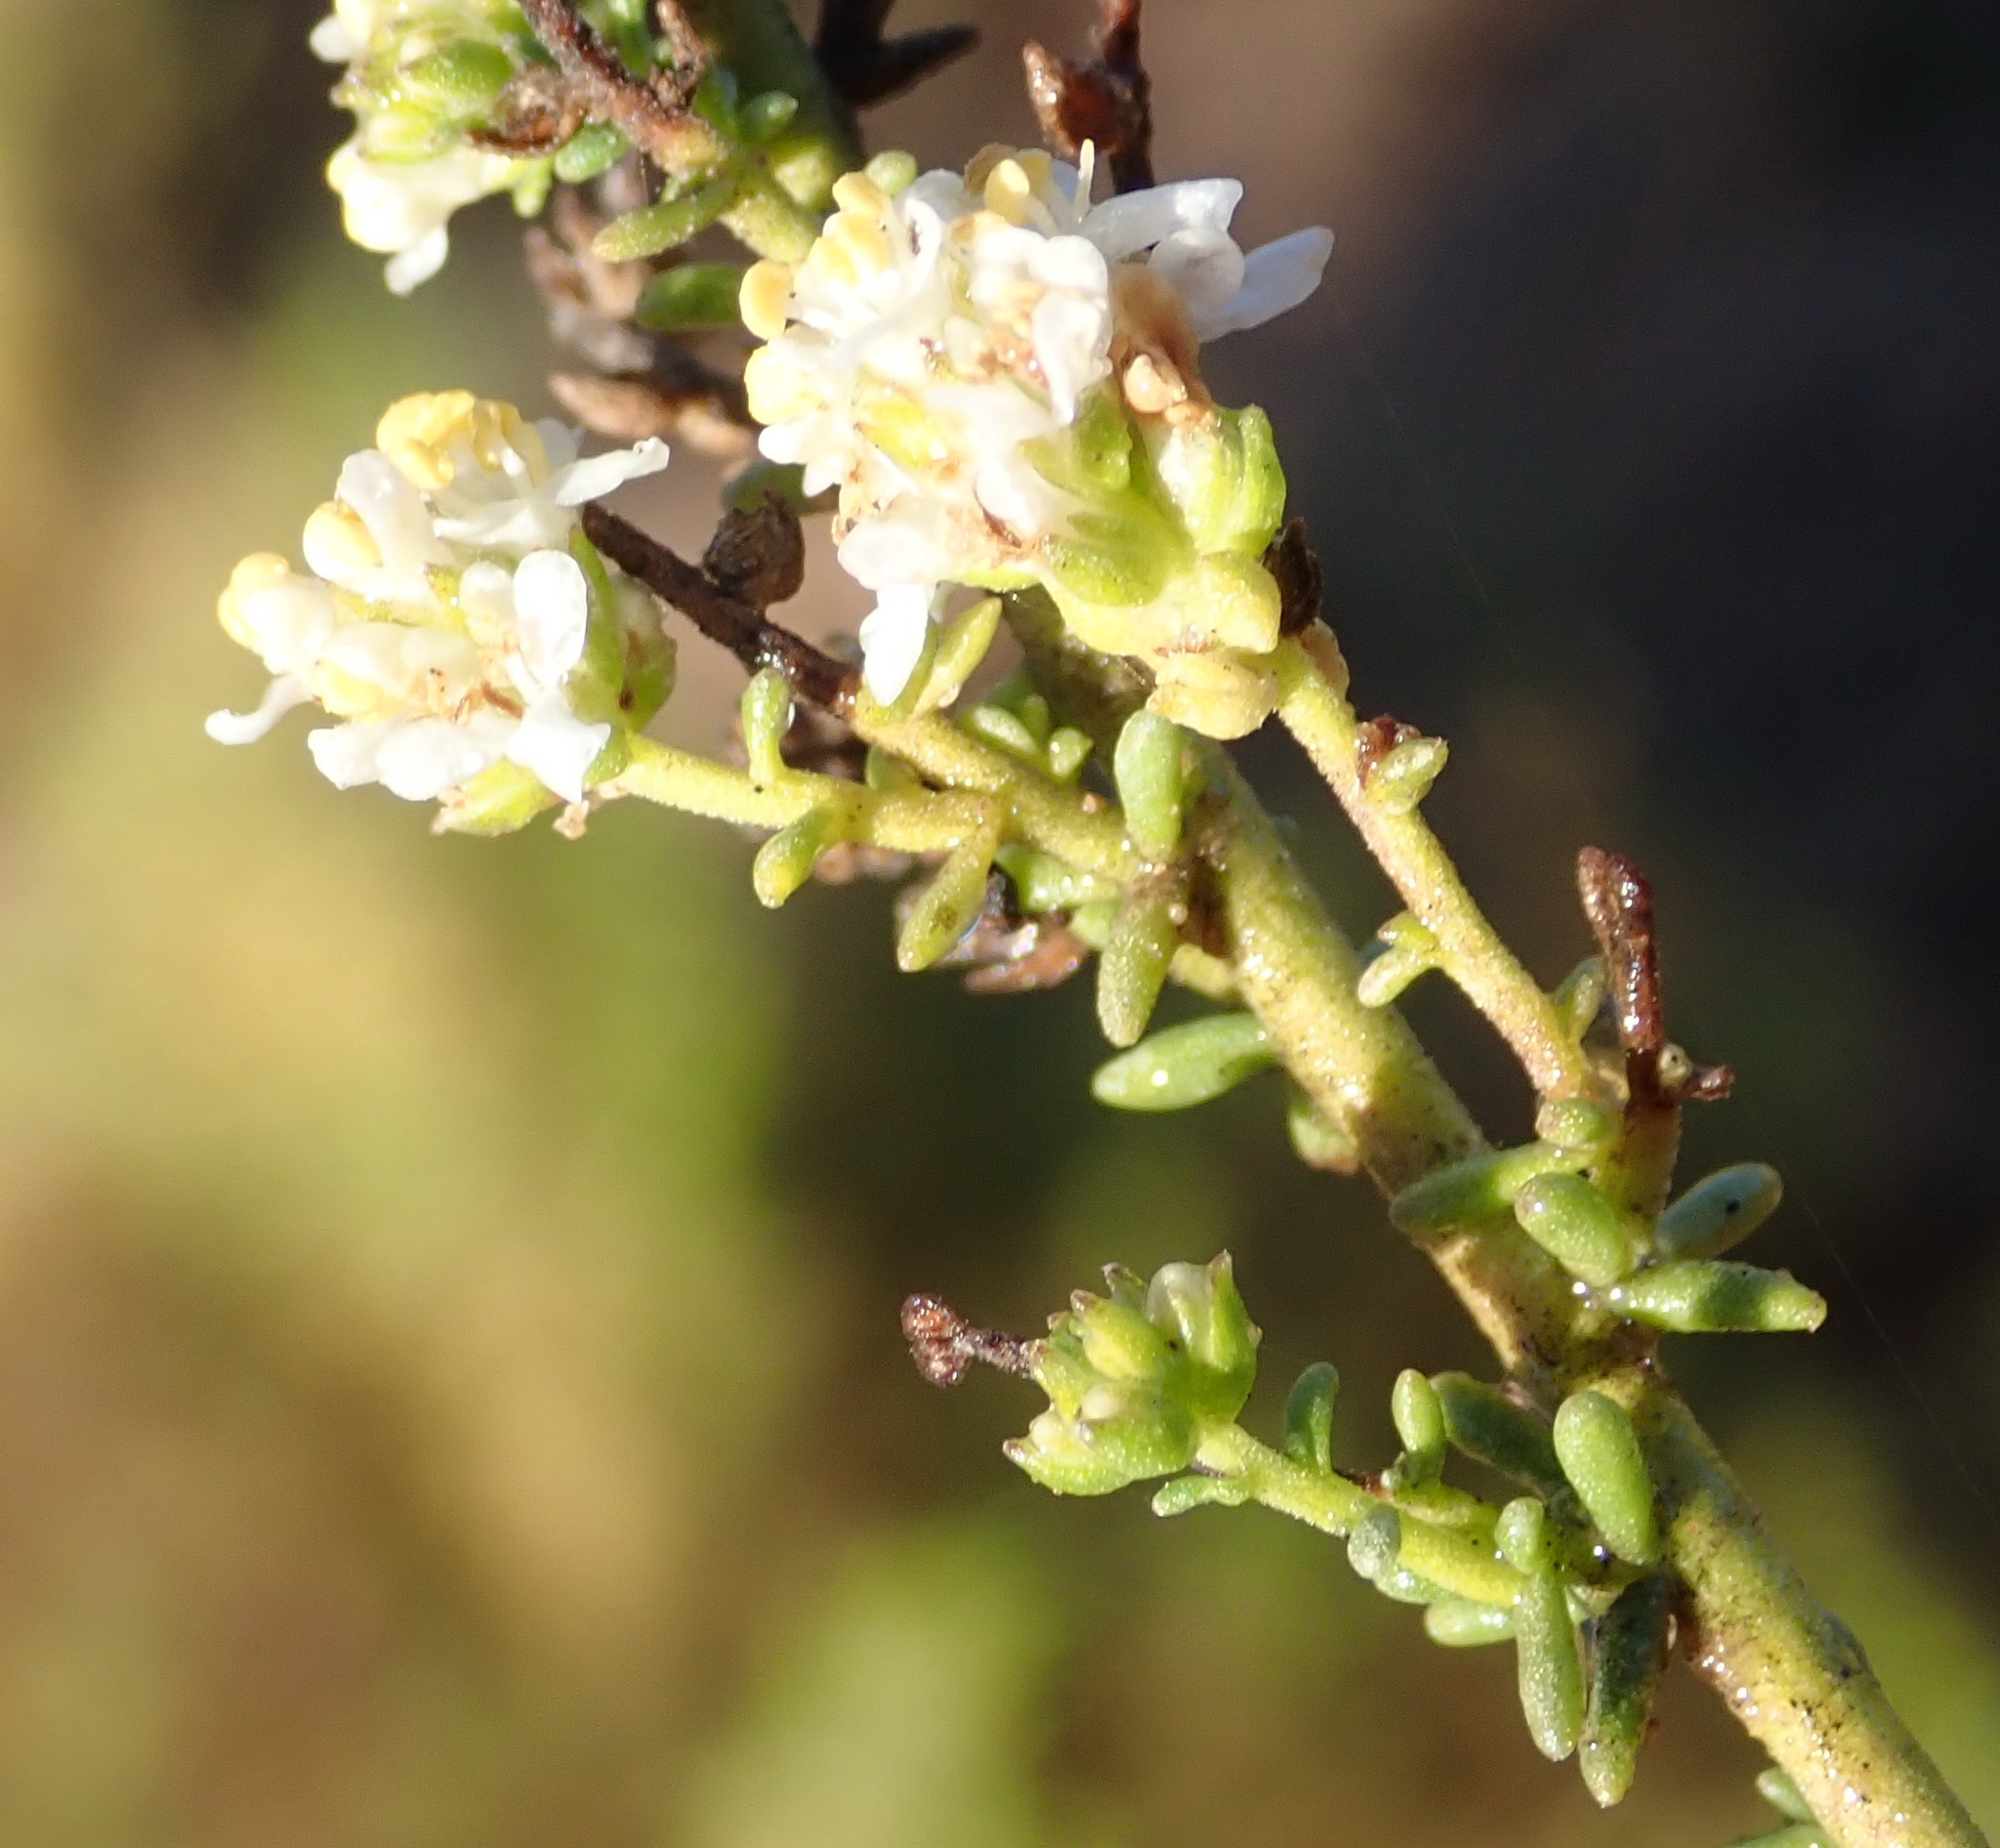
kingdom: Plantae
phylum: Tracheophyta
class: Magnoliopsida
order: Lamiales
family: Scrophulariaceae
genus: Selago
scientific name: Selago gracilis
